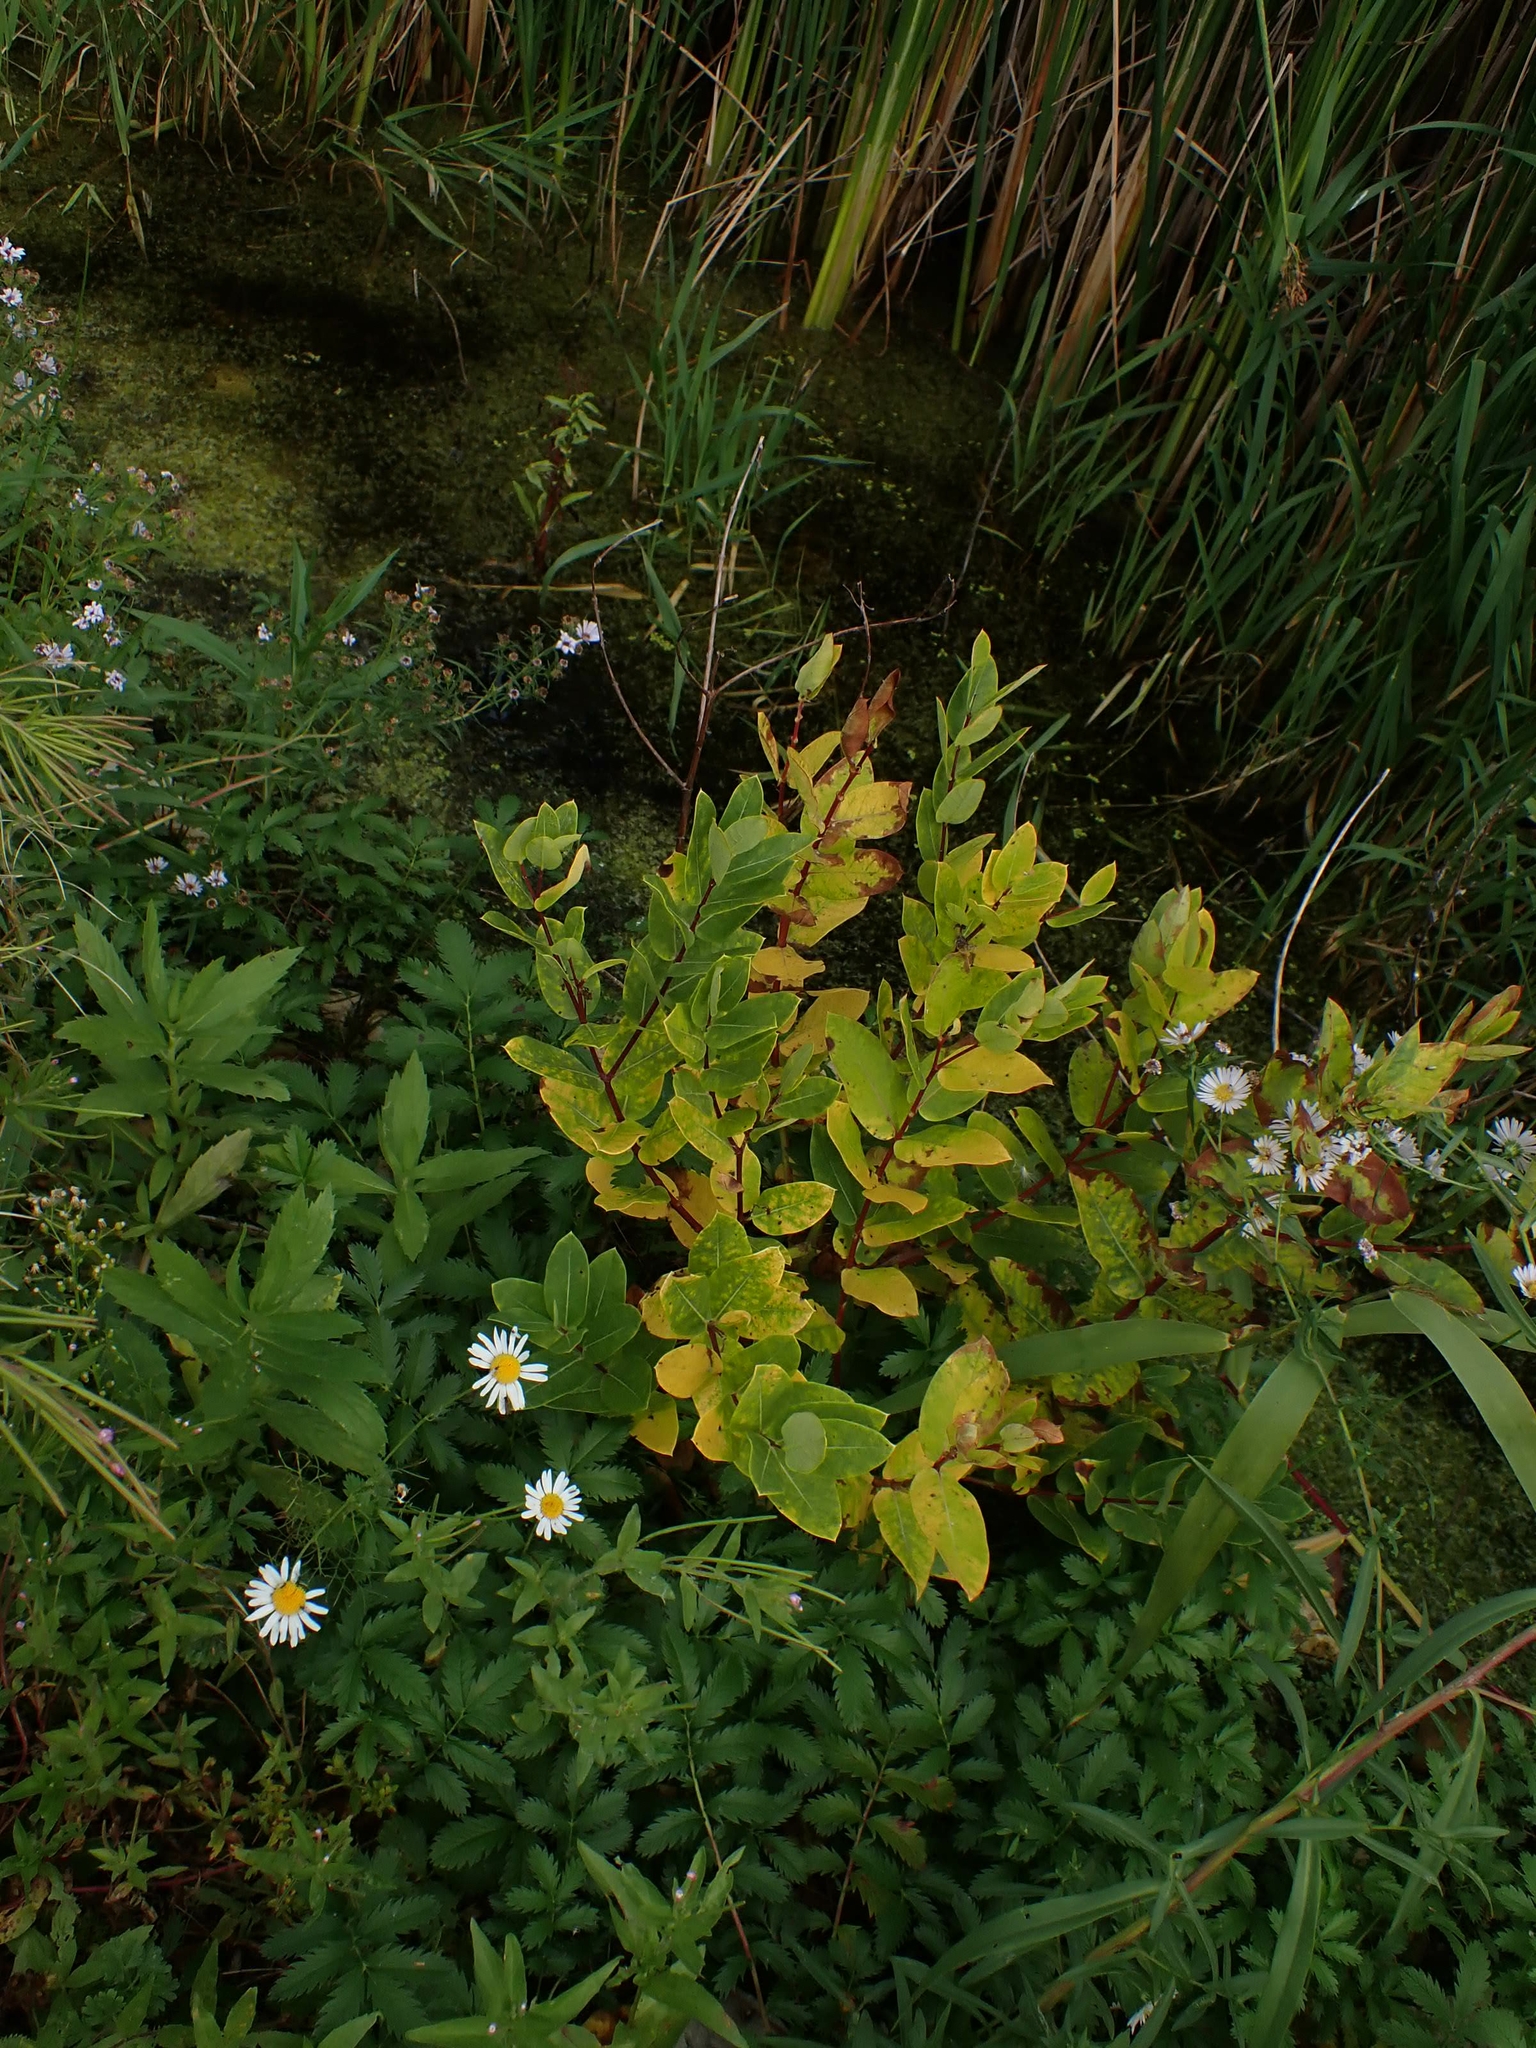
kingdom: Plantae
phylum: Tracheophyta
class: Magnoliopsida
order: Gentianales
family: Apocynaceae
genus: Apocynum
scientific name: Apocynum cannabinum
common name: Hemp dogbane
